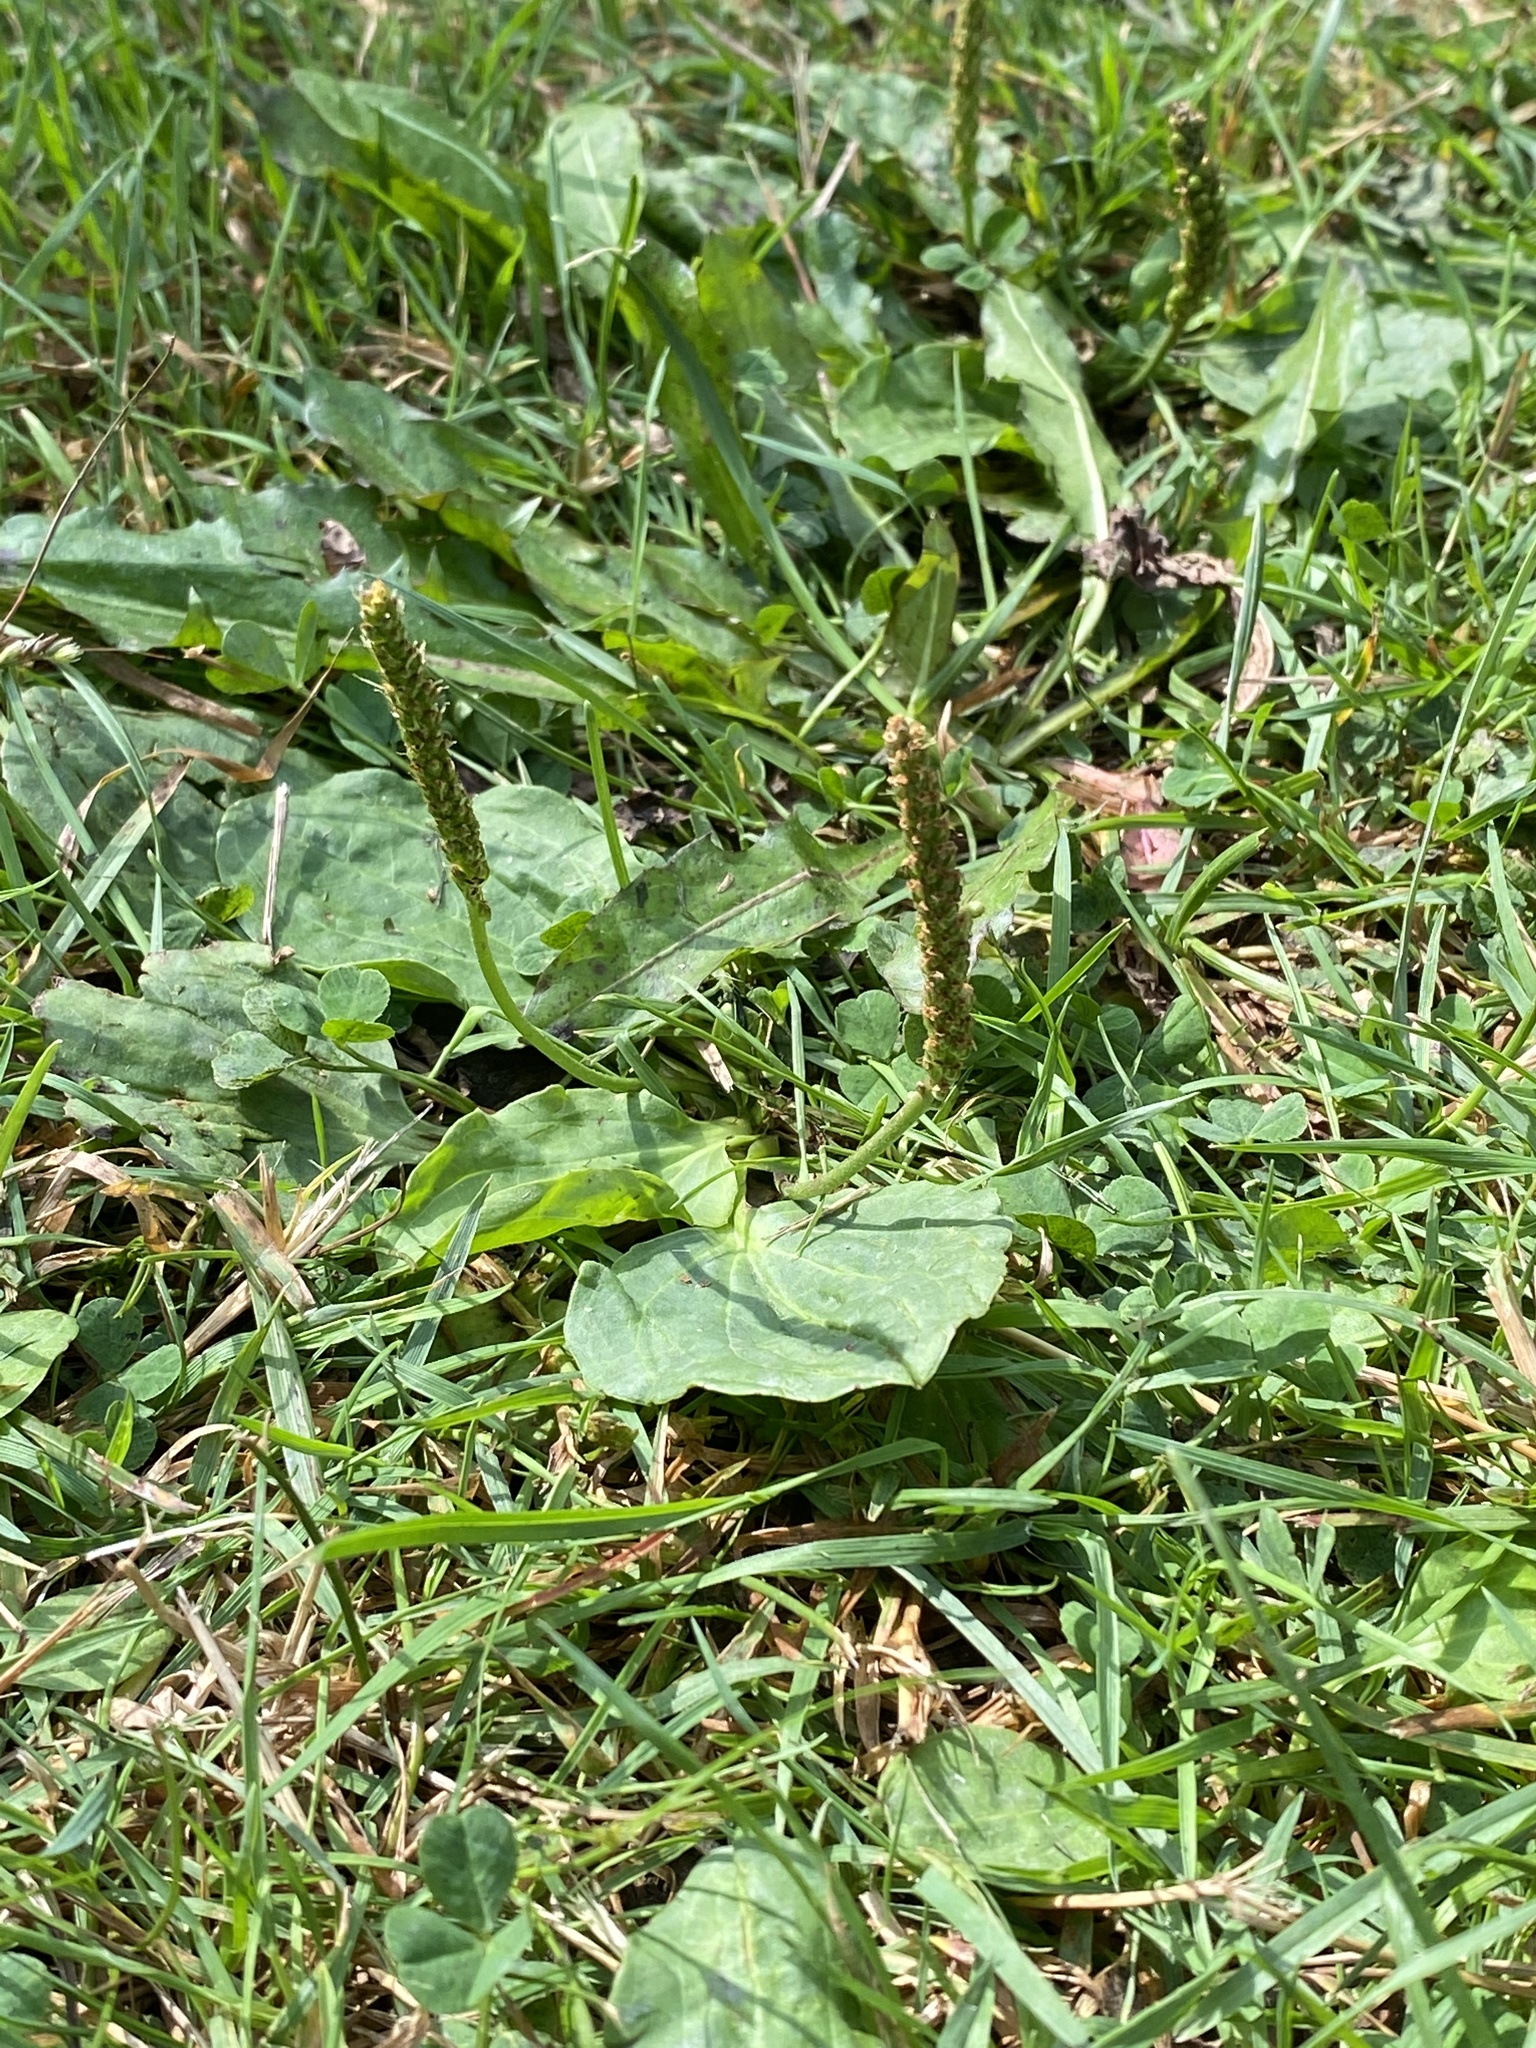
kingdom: Plantae
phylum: Tracheophyta
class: Magnoliopsida
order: Lamiales
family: Plantaginaceae
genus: Plantago
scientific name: Plantago major
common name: Common plantain
